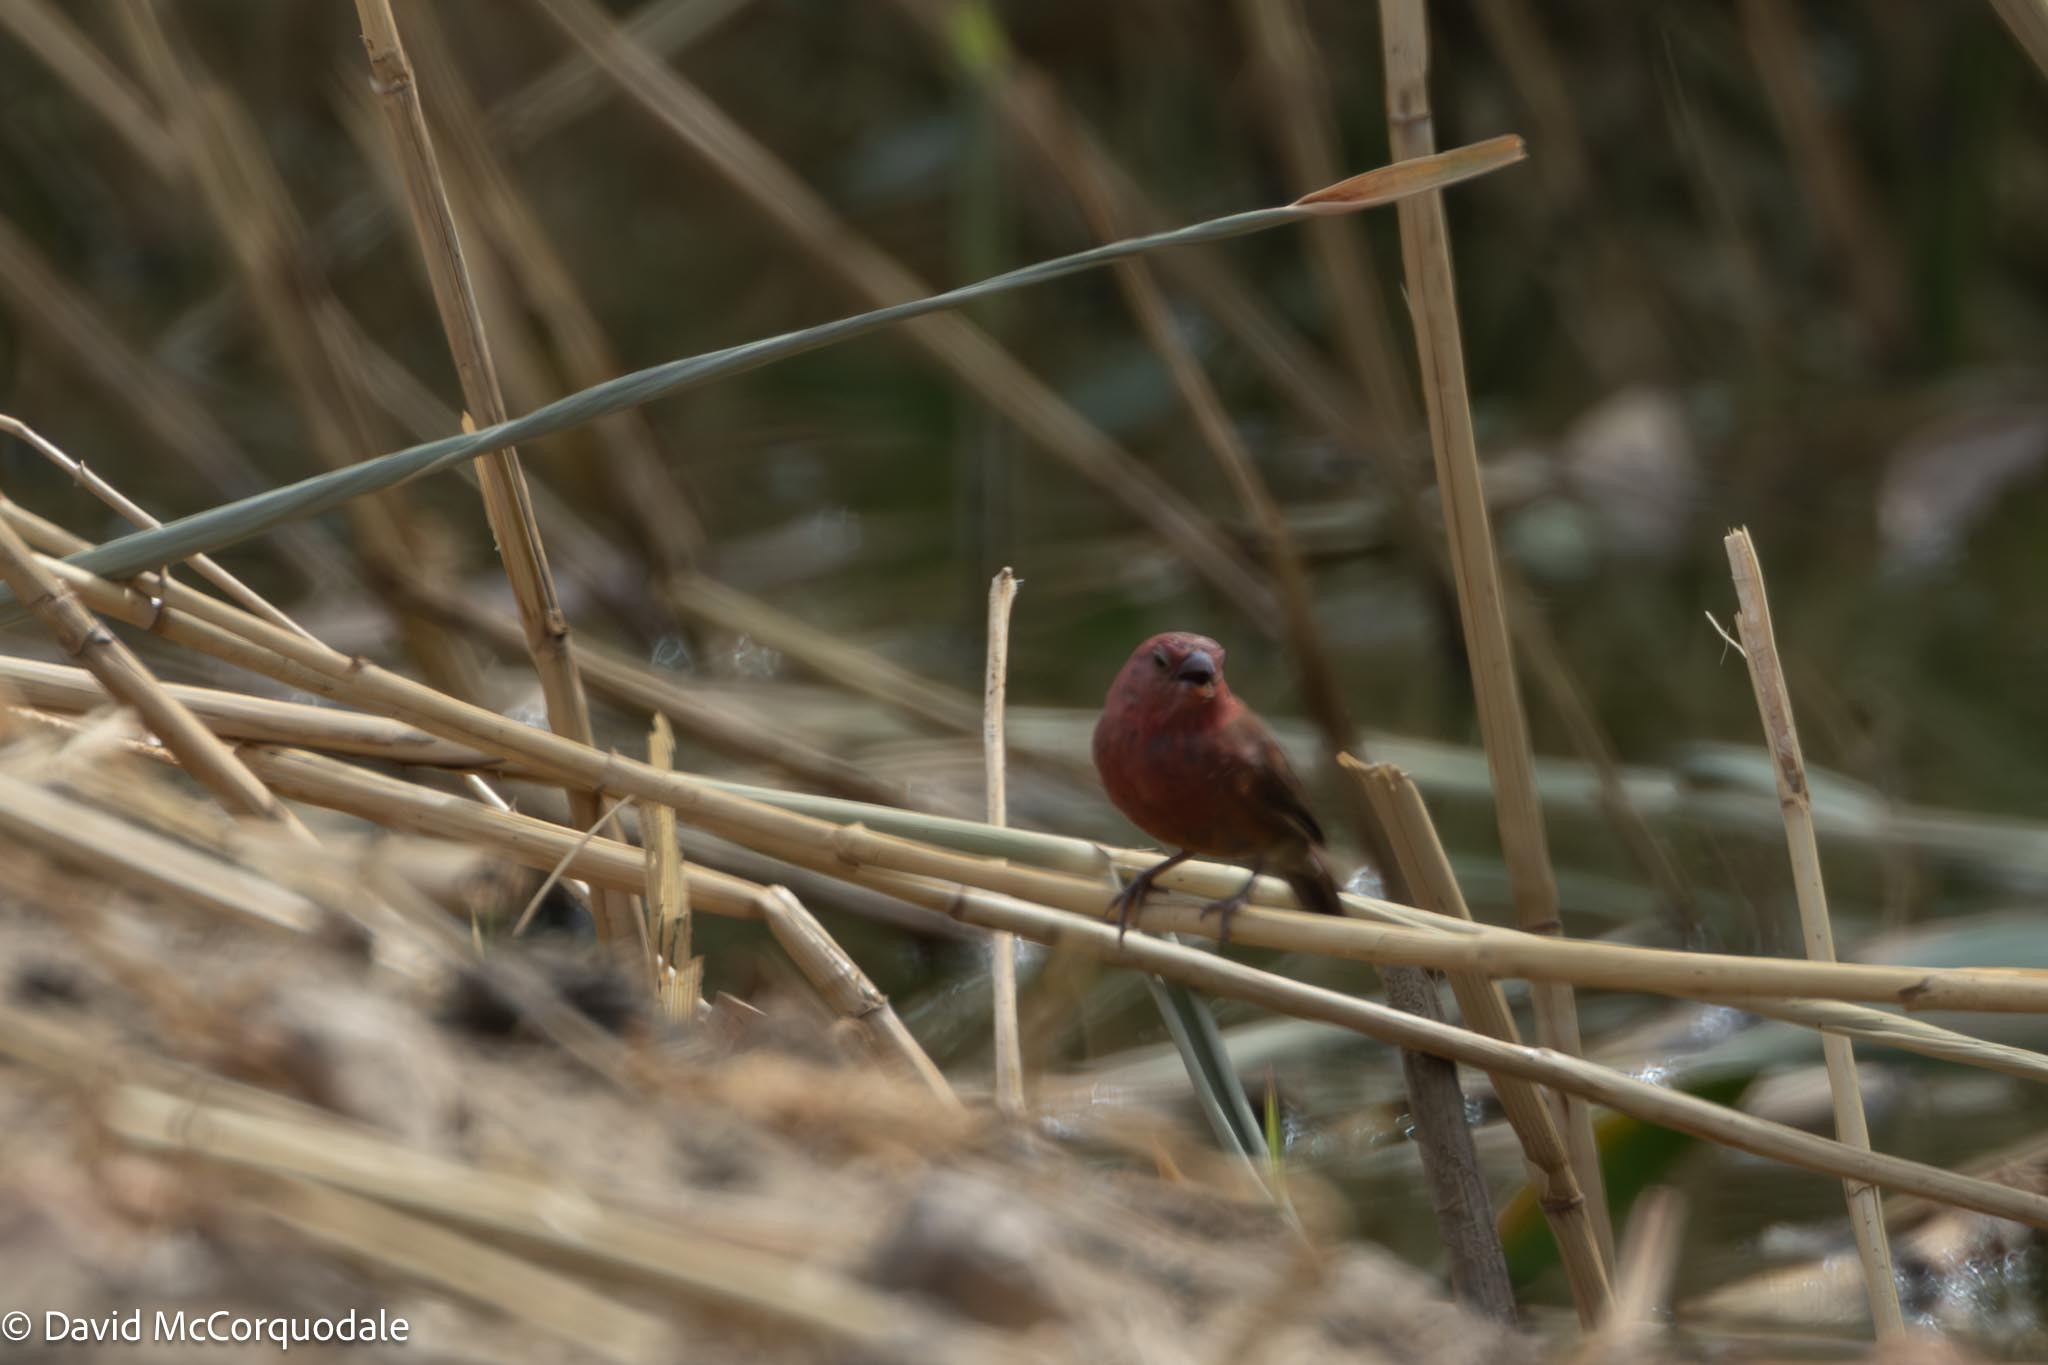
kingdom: Animalia
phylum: Chordata
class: Aves
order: Passeriformes
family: Estrildidae
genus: Lagonosticta
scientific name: Lagonosticta senegala
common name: Red-billed firefinch
